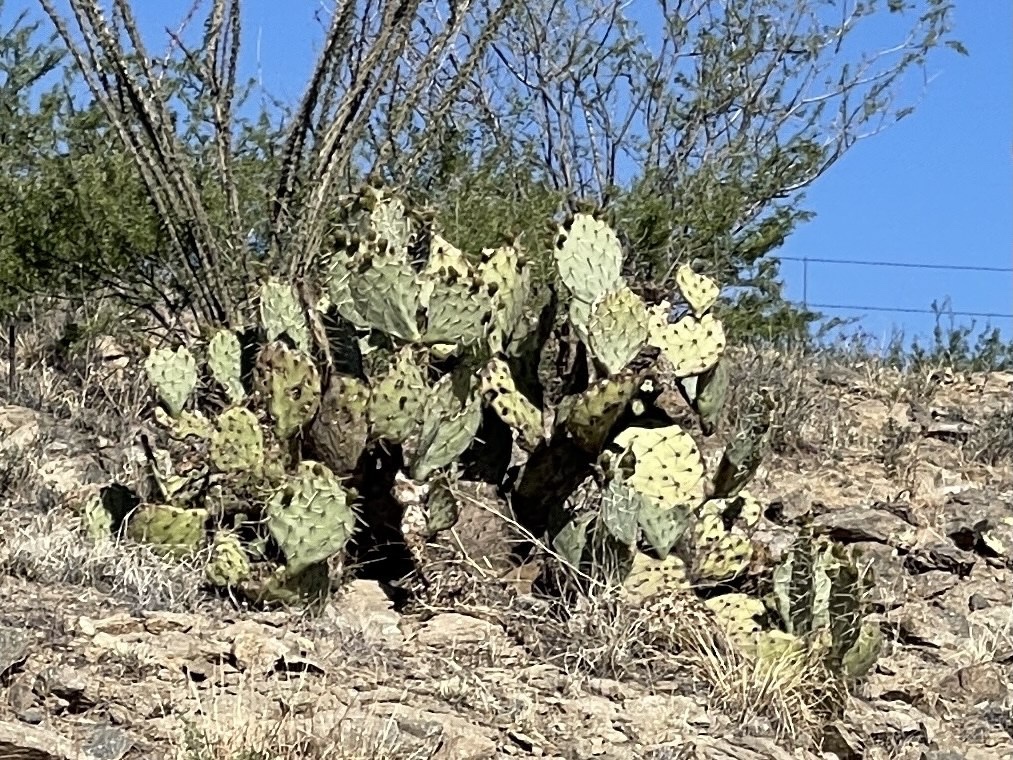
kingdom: Plantae
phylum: Tracheophyta
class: Magnoliopsida
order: Caryophyllales
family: Cactaceae
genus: Opuntia
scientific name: Opuntia engelmannii
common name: Cactus-apple
